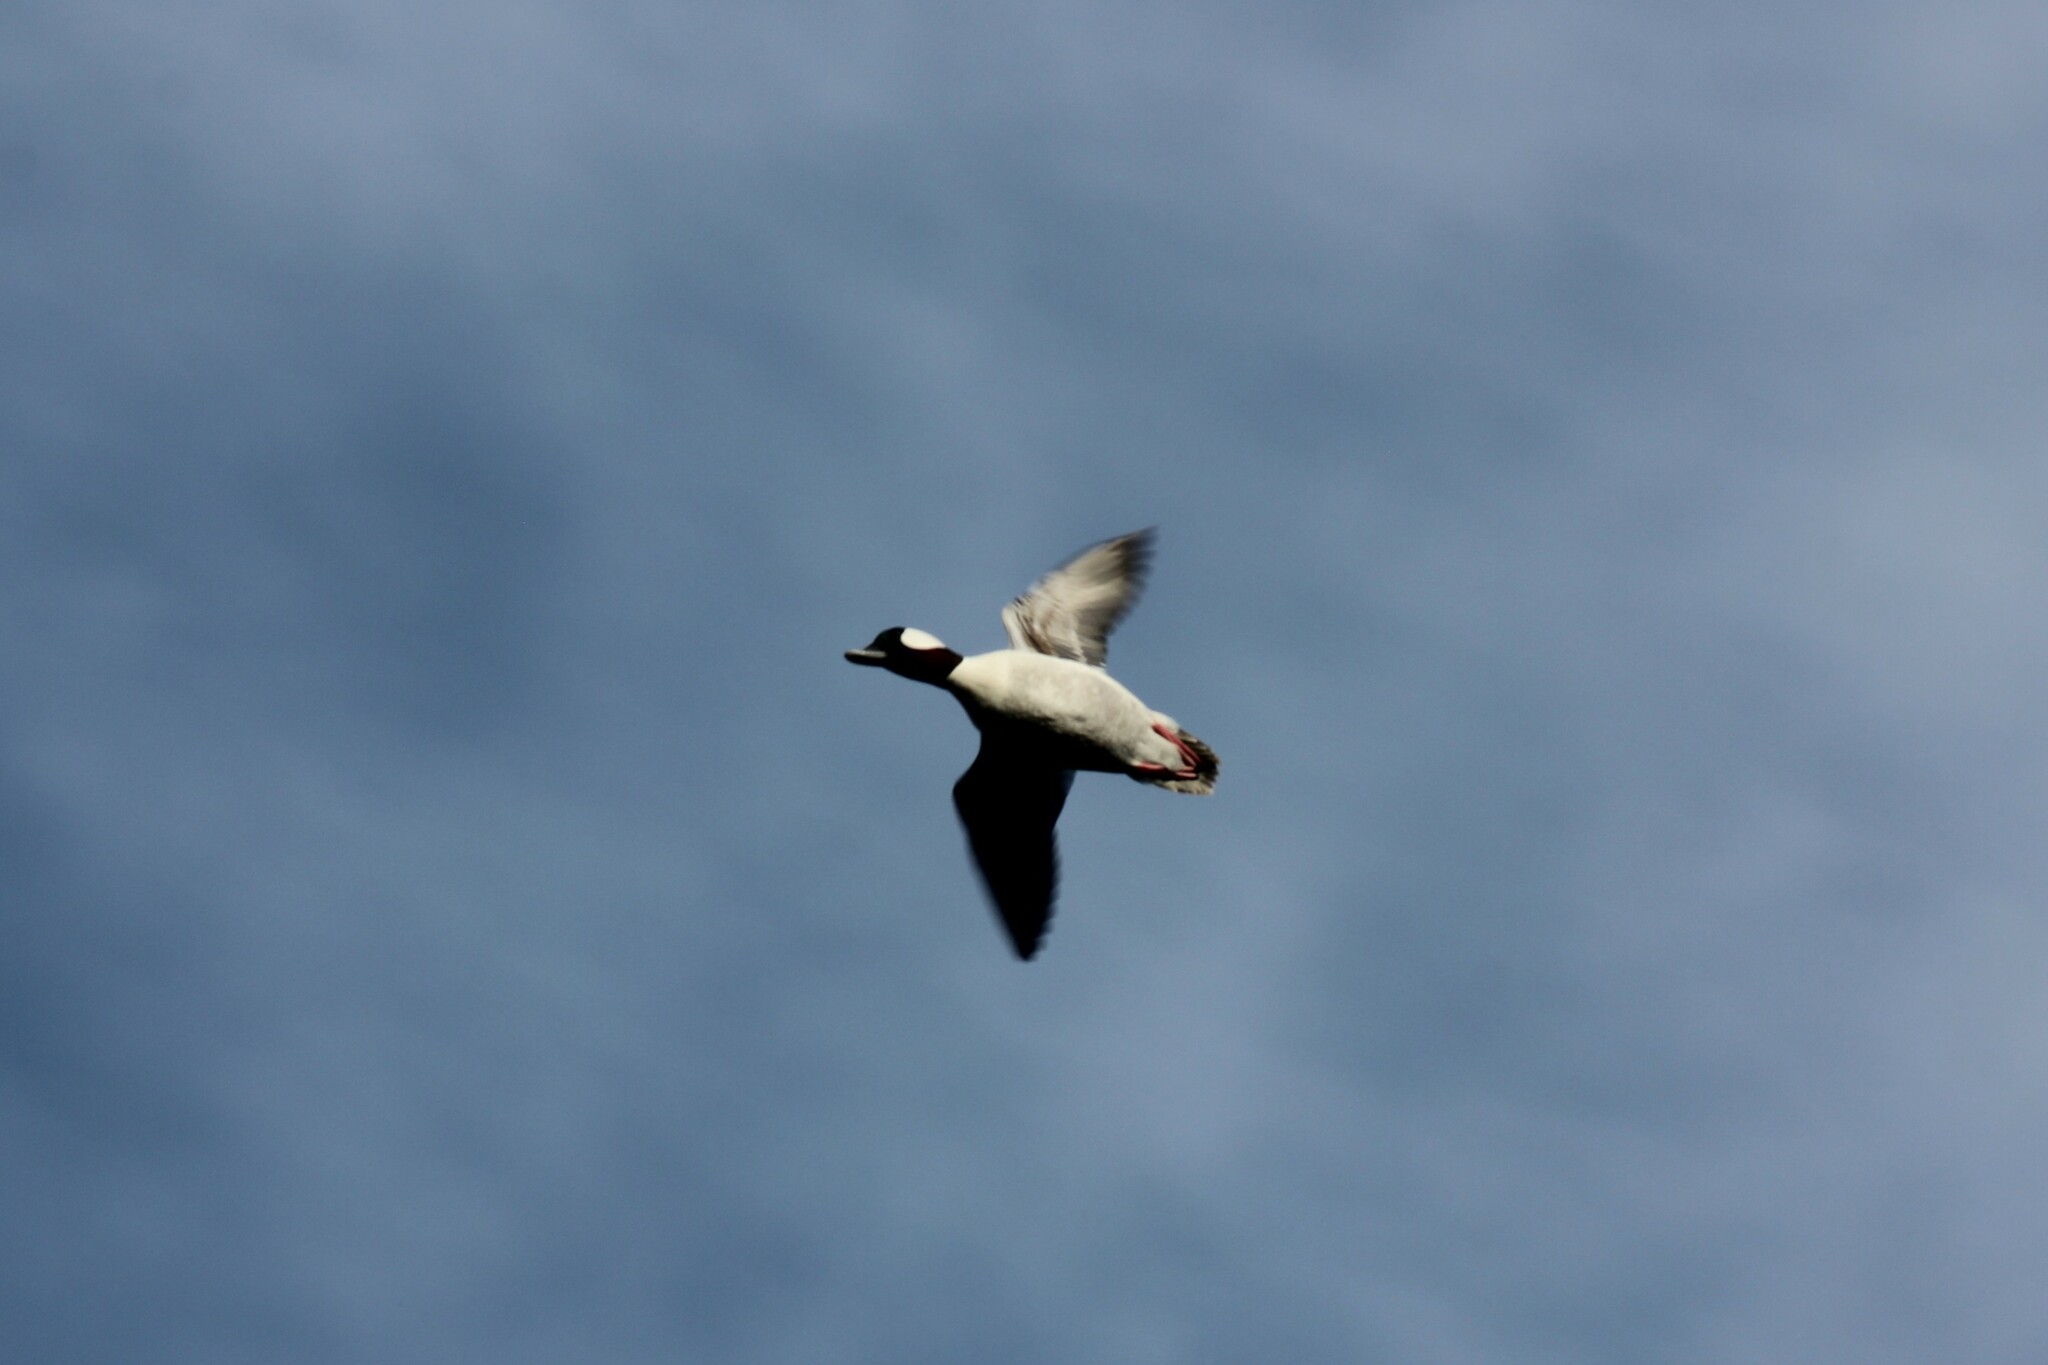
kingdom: Animalia
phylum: Chordata
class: Aves
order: Anseriformes
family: Anatidae
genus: Bucephala
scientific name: Bucephala albeola
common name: Bufflehead
